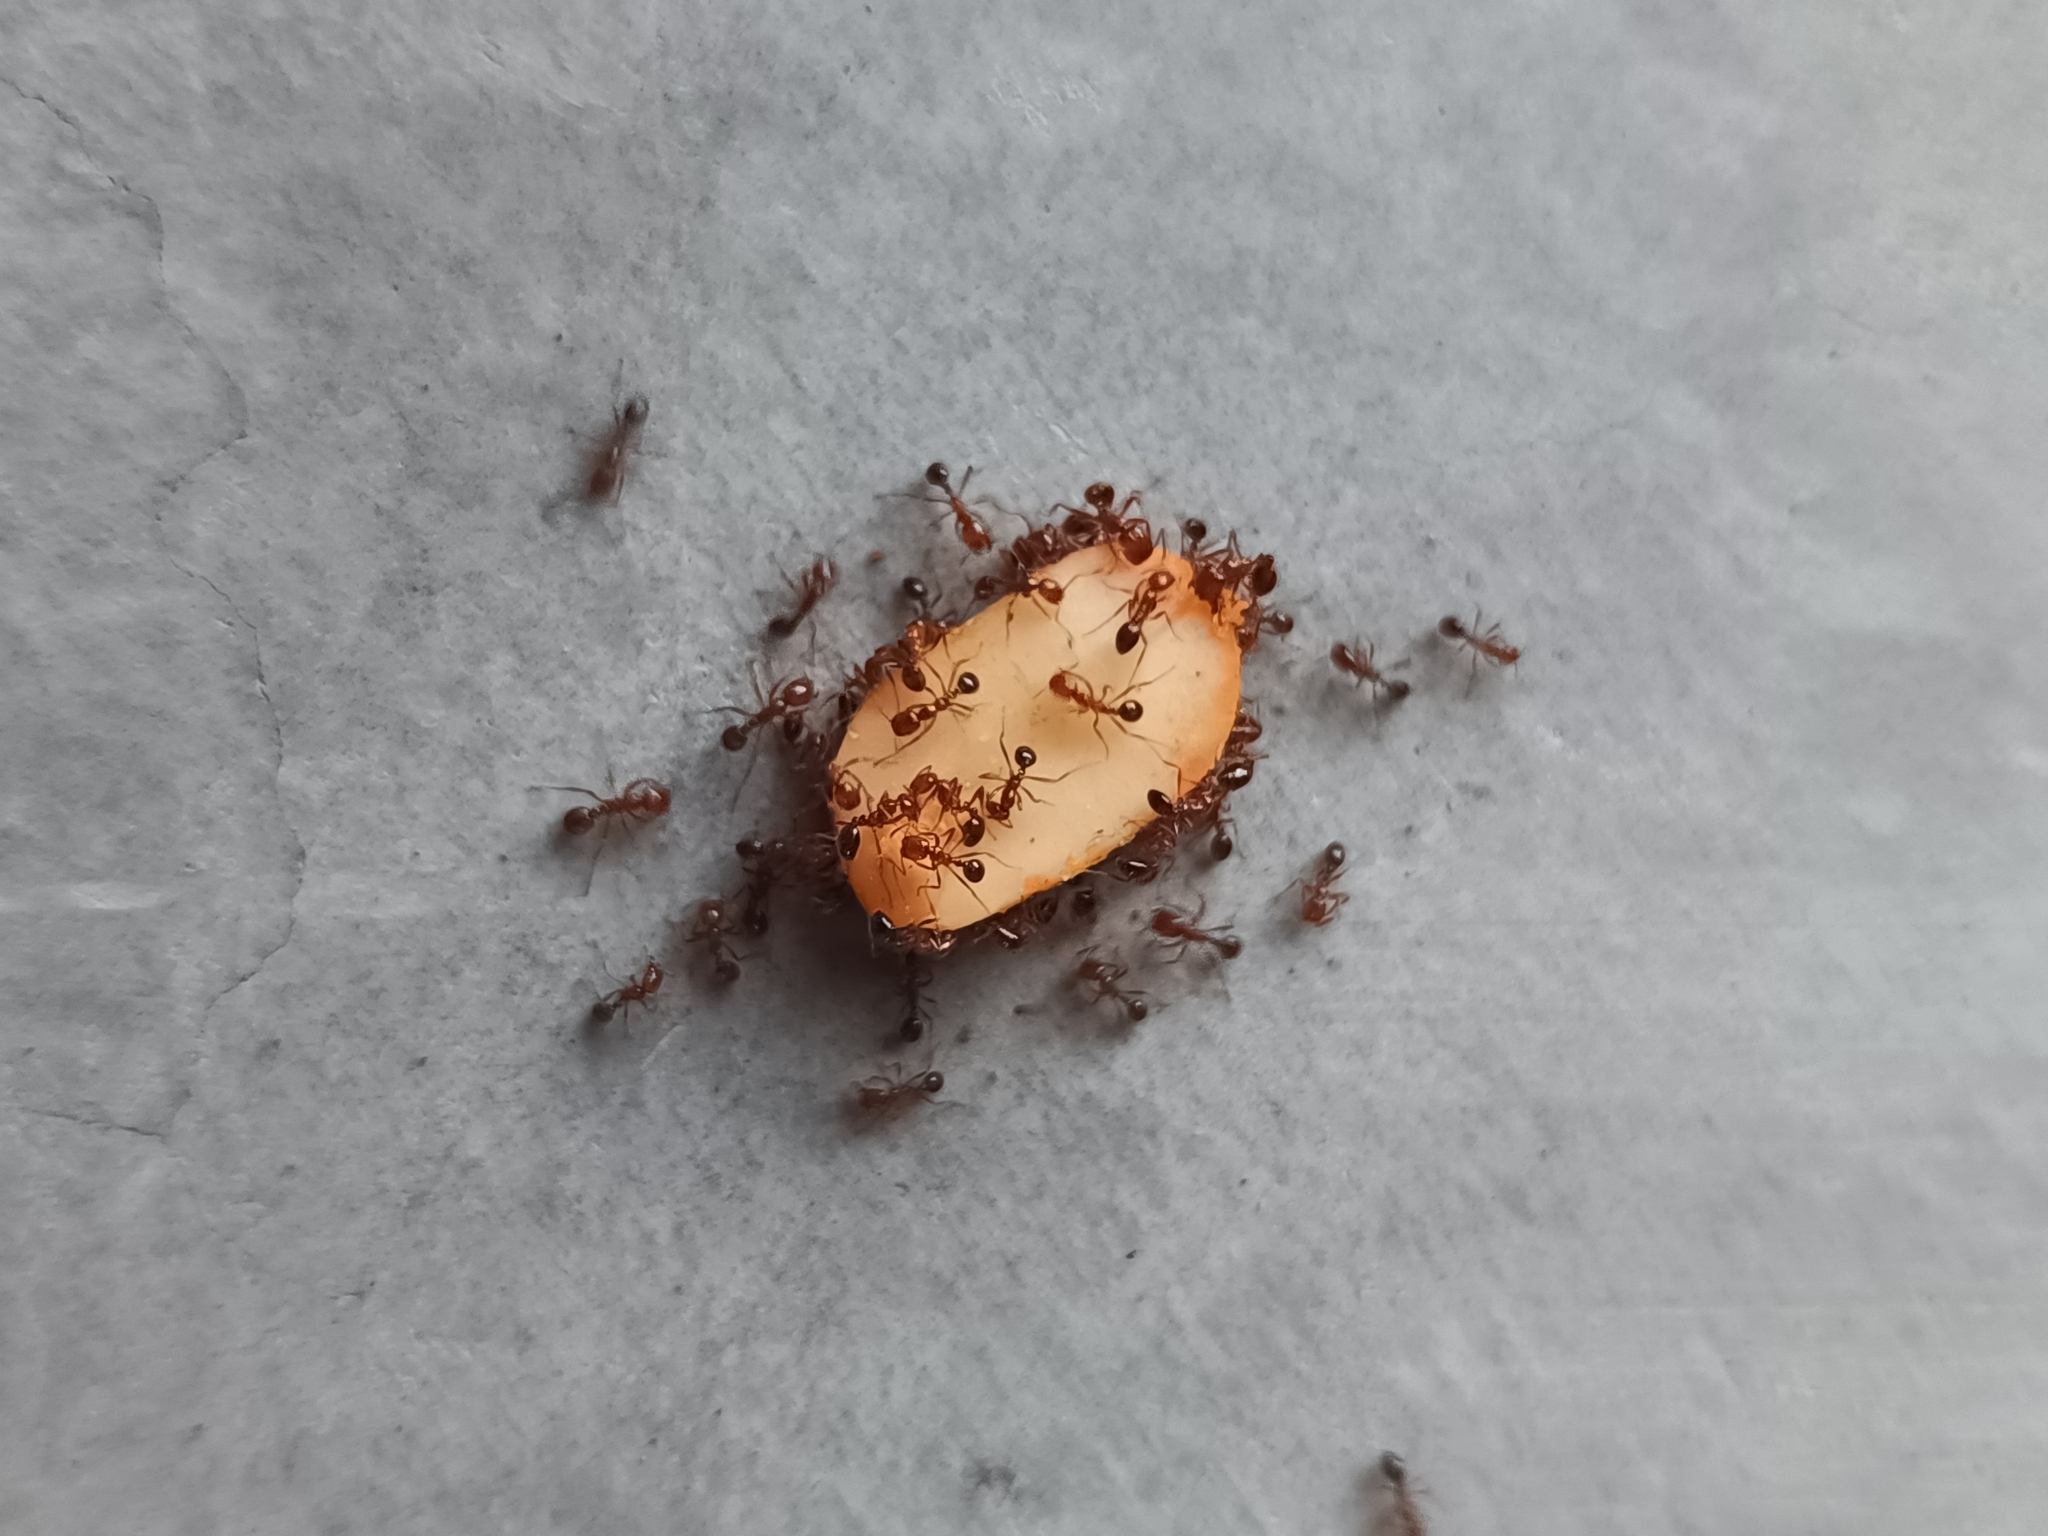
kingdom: Animalia
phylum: Arthropoda
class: Insecta
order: Hymenoptera
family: Formicidae
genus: Solenopsis
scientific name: Solenopsis geminata
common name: Tropical fire ant
